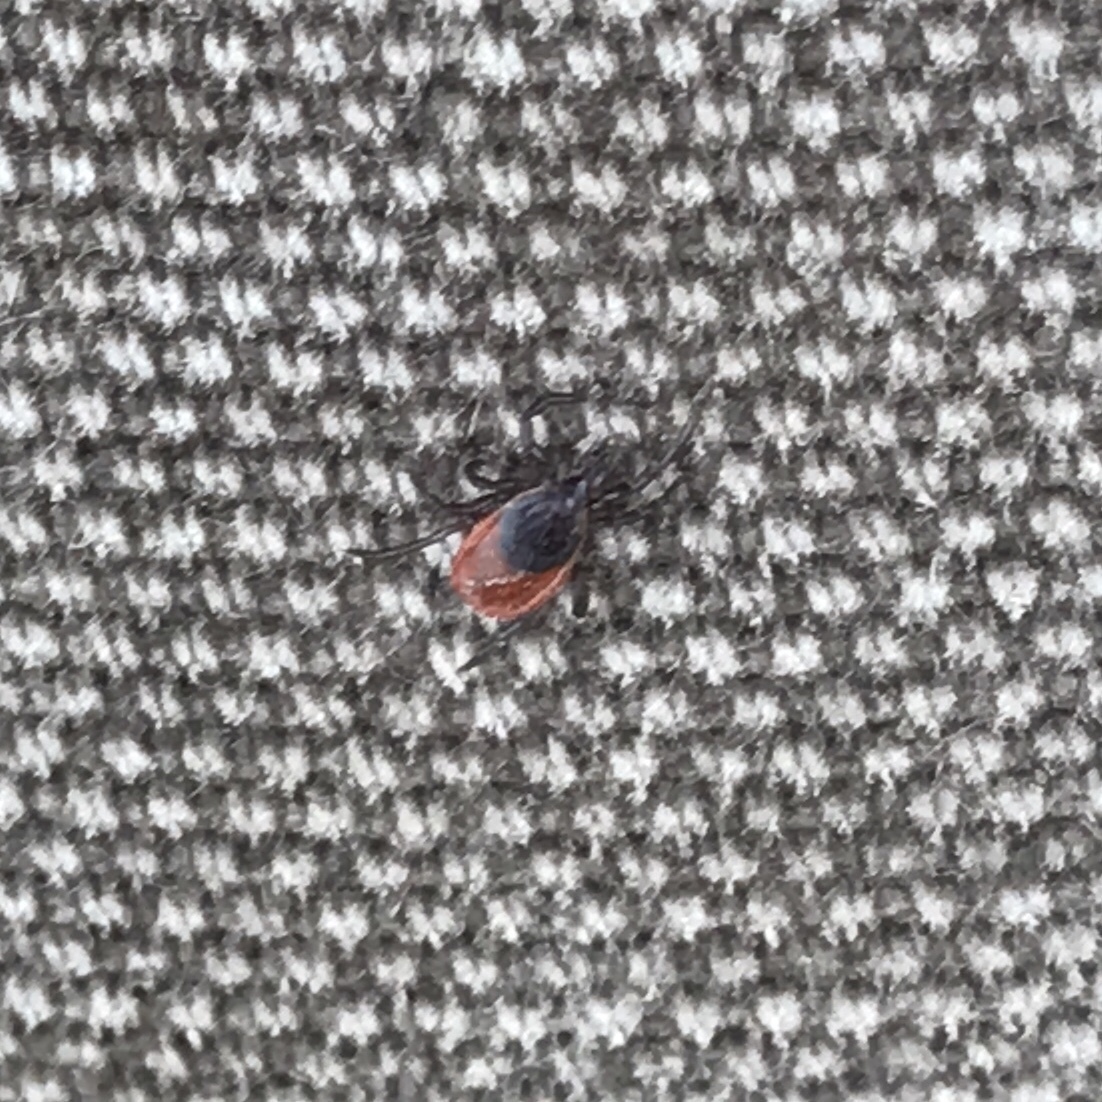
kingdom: Animalia
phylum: Arthropoda
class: Arachnida
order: Ixodida
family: Ixodidae
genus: Ixodes
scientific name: Ixodes scapularis
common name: Black legged tick
